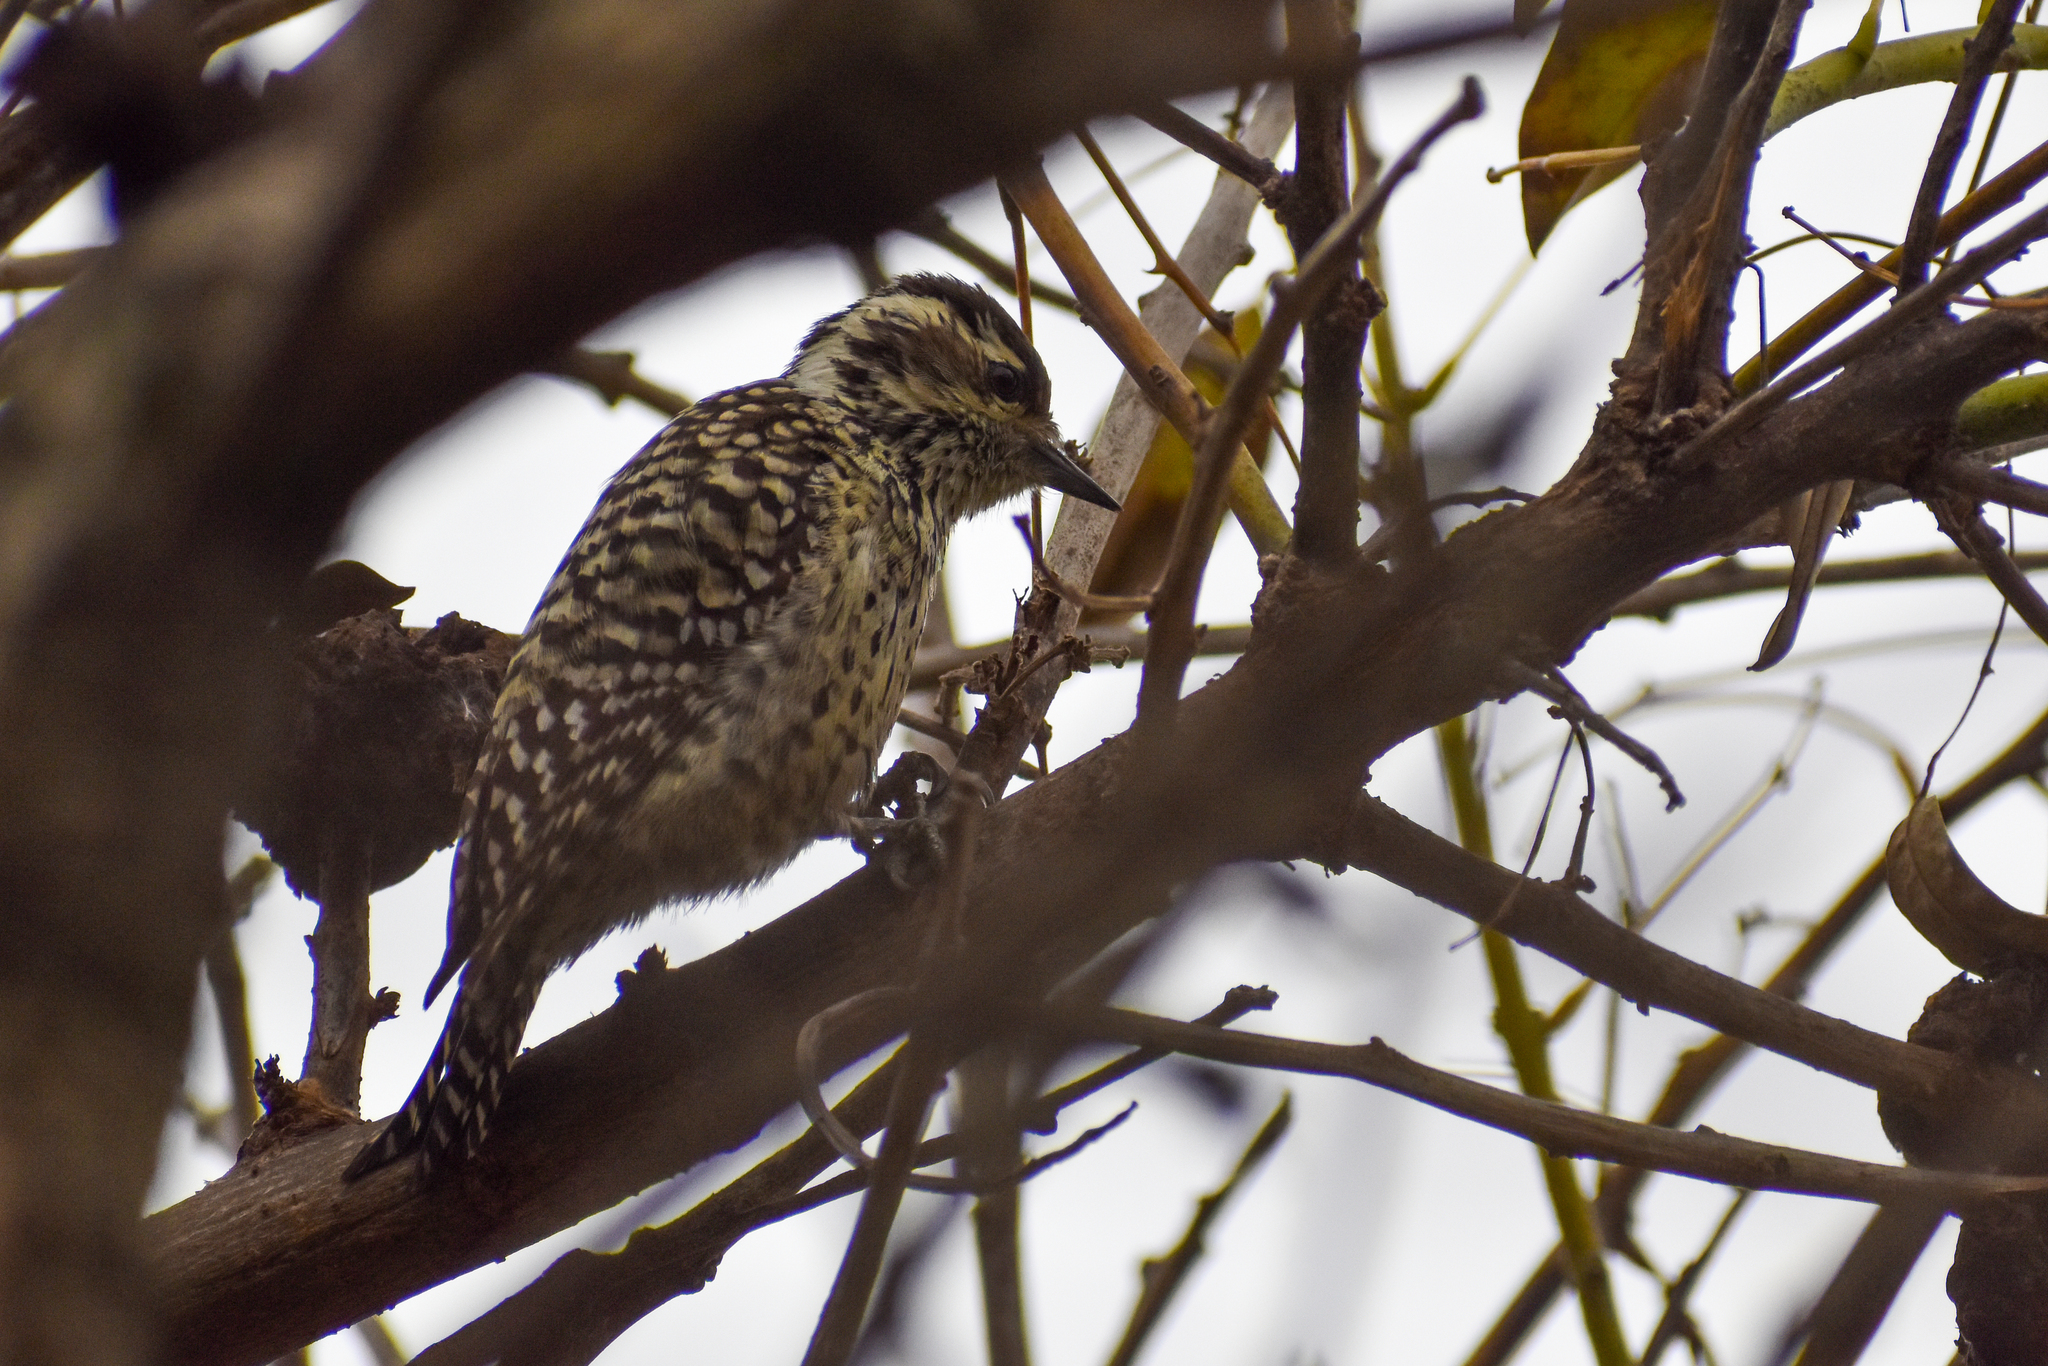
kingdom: Animalia
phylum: Chordata
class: Aves
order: Piciformes
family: Picidae
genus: Veniliornis
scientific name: Veniliornis mixtus
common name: Checkered woodpecker
